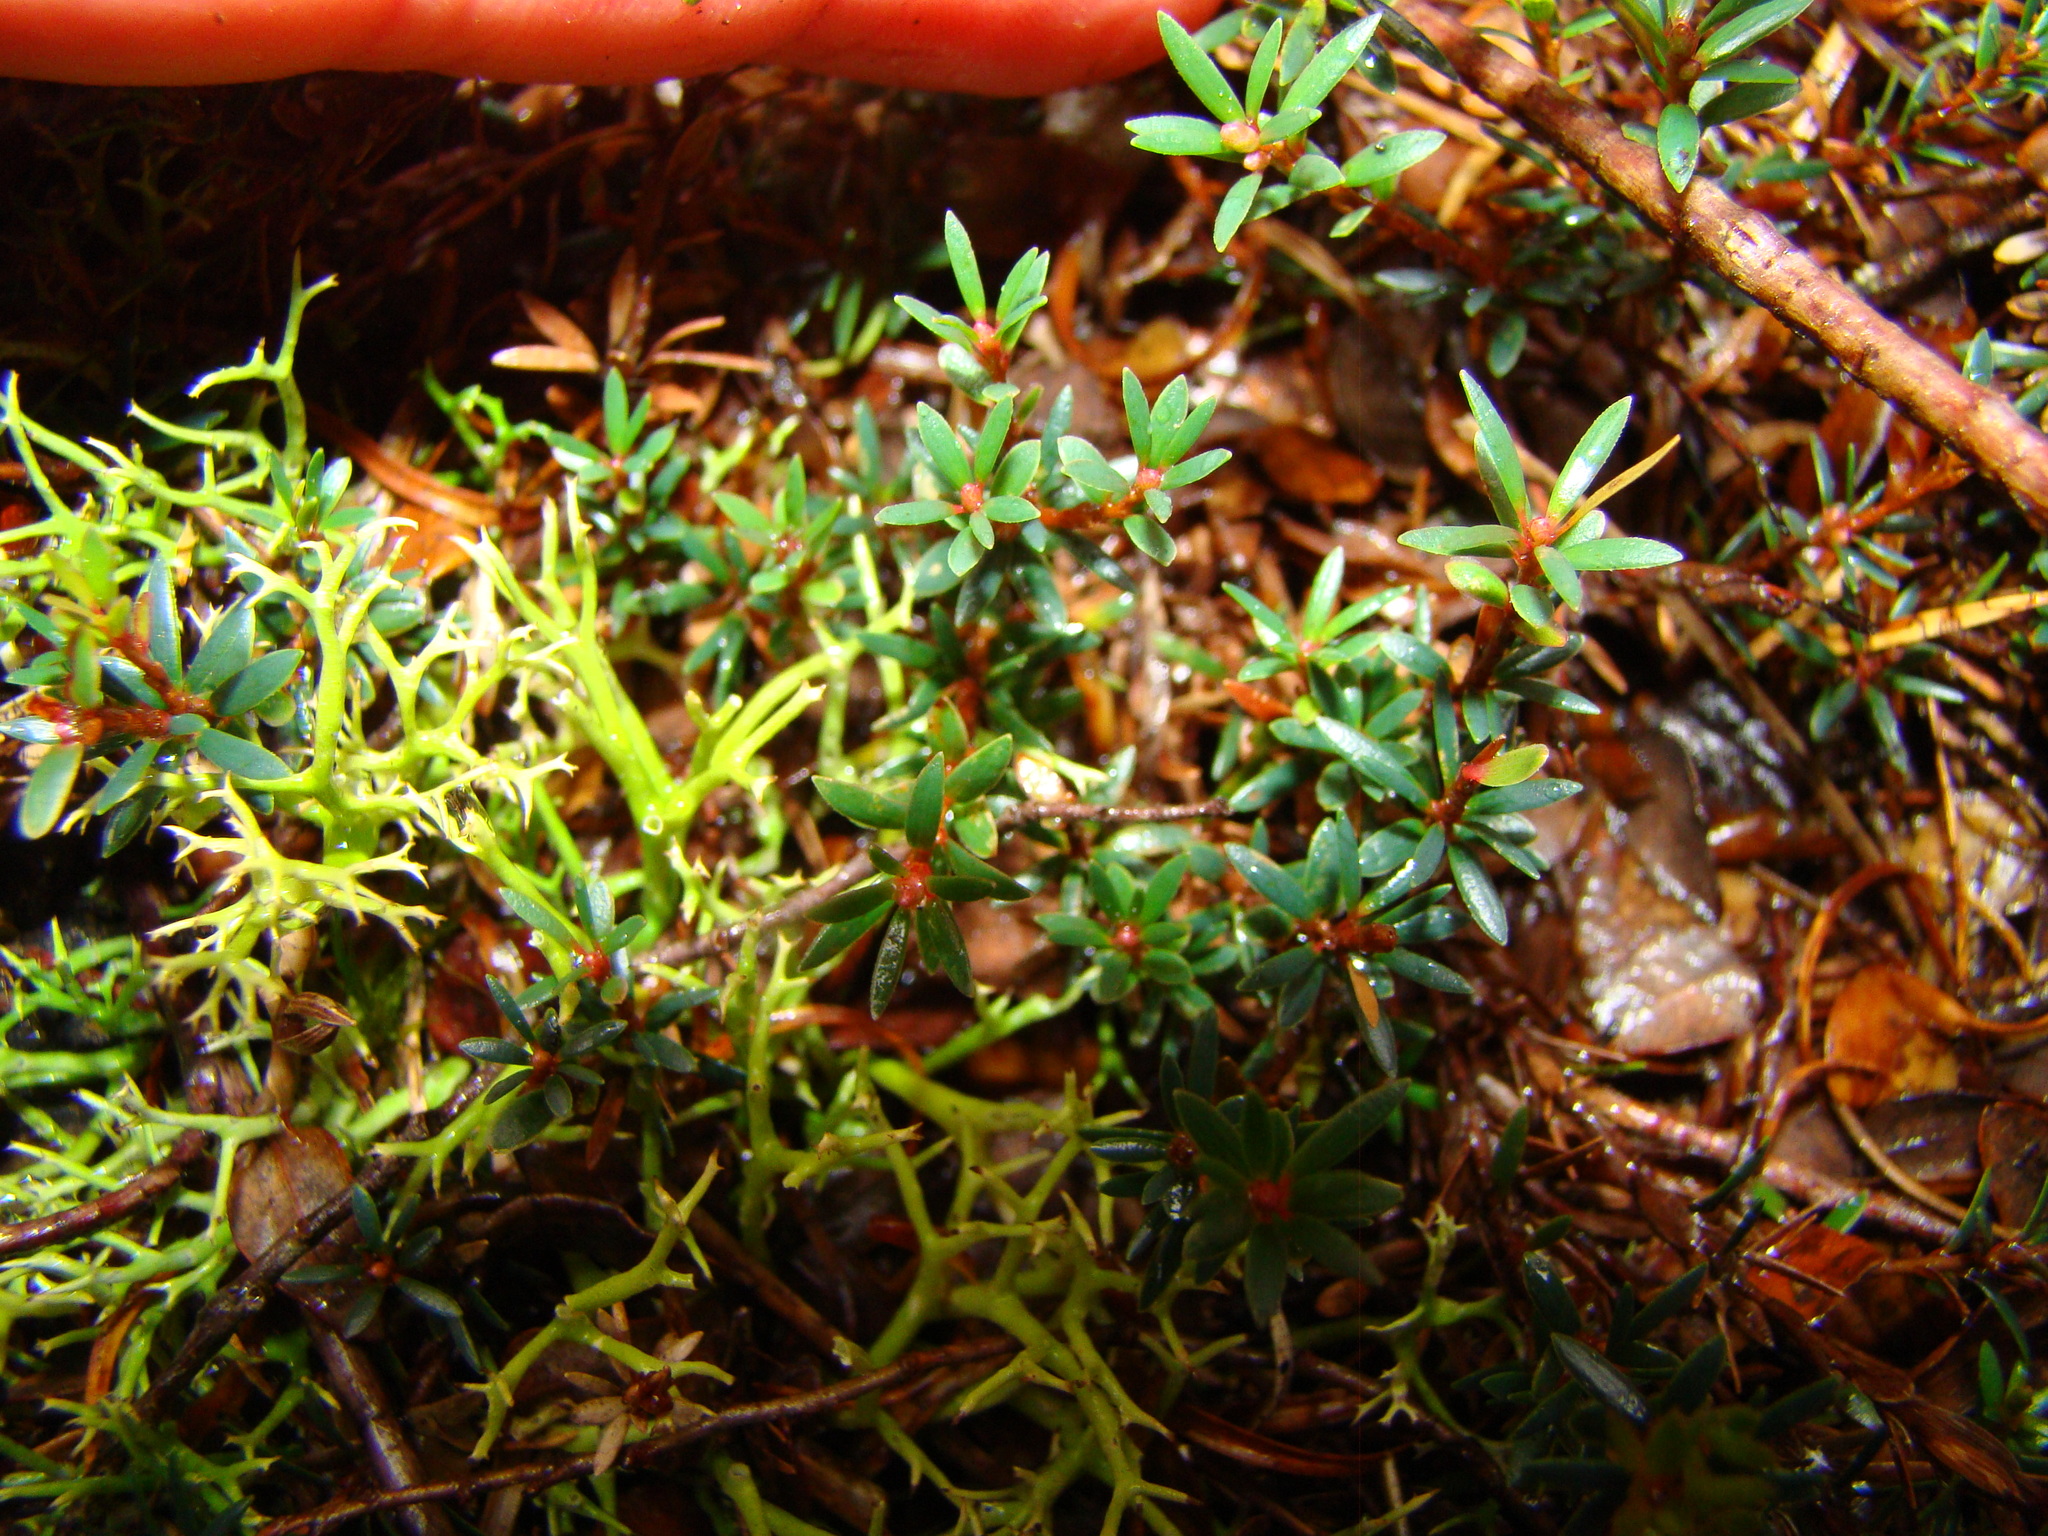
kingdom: Plantae
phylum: Tracheophyta
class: Magnoliopsida
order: Ericales
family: Ericaceae
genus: Pentachondra
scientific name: Pentachondra pumila
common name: Carpet-heath
